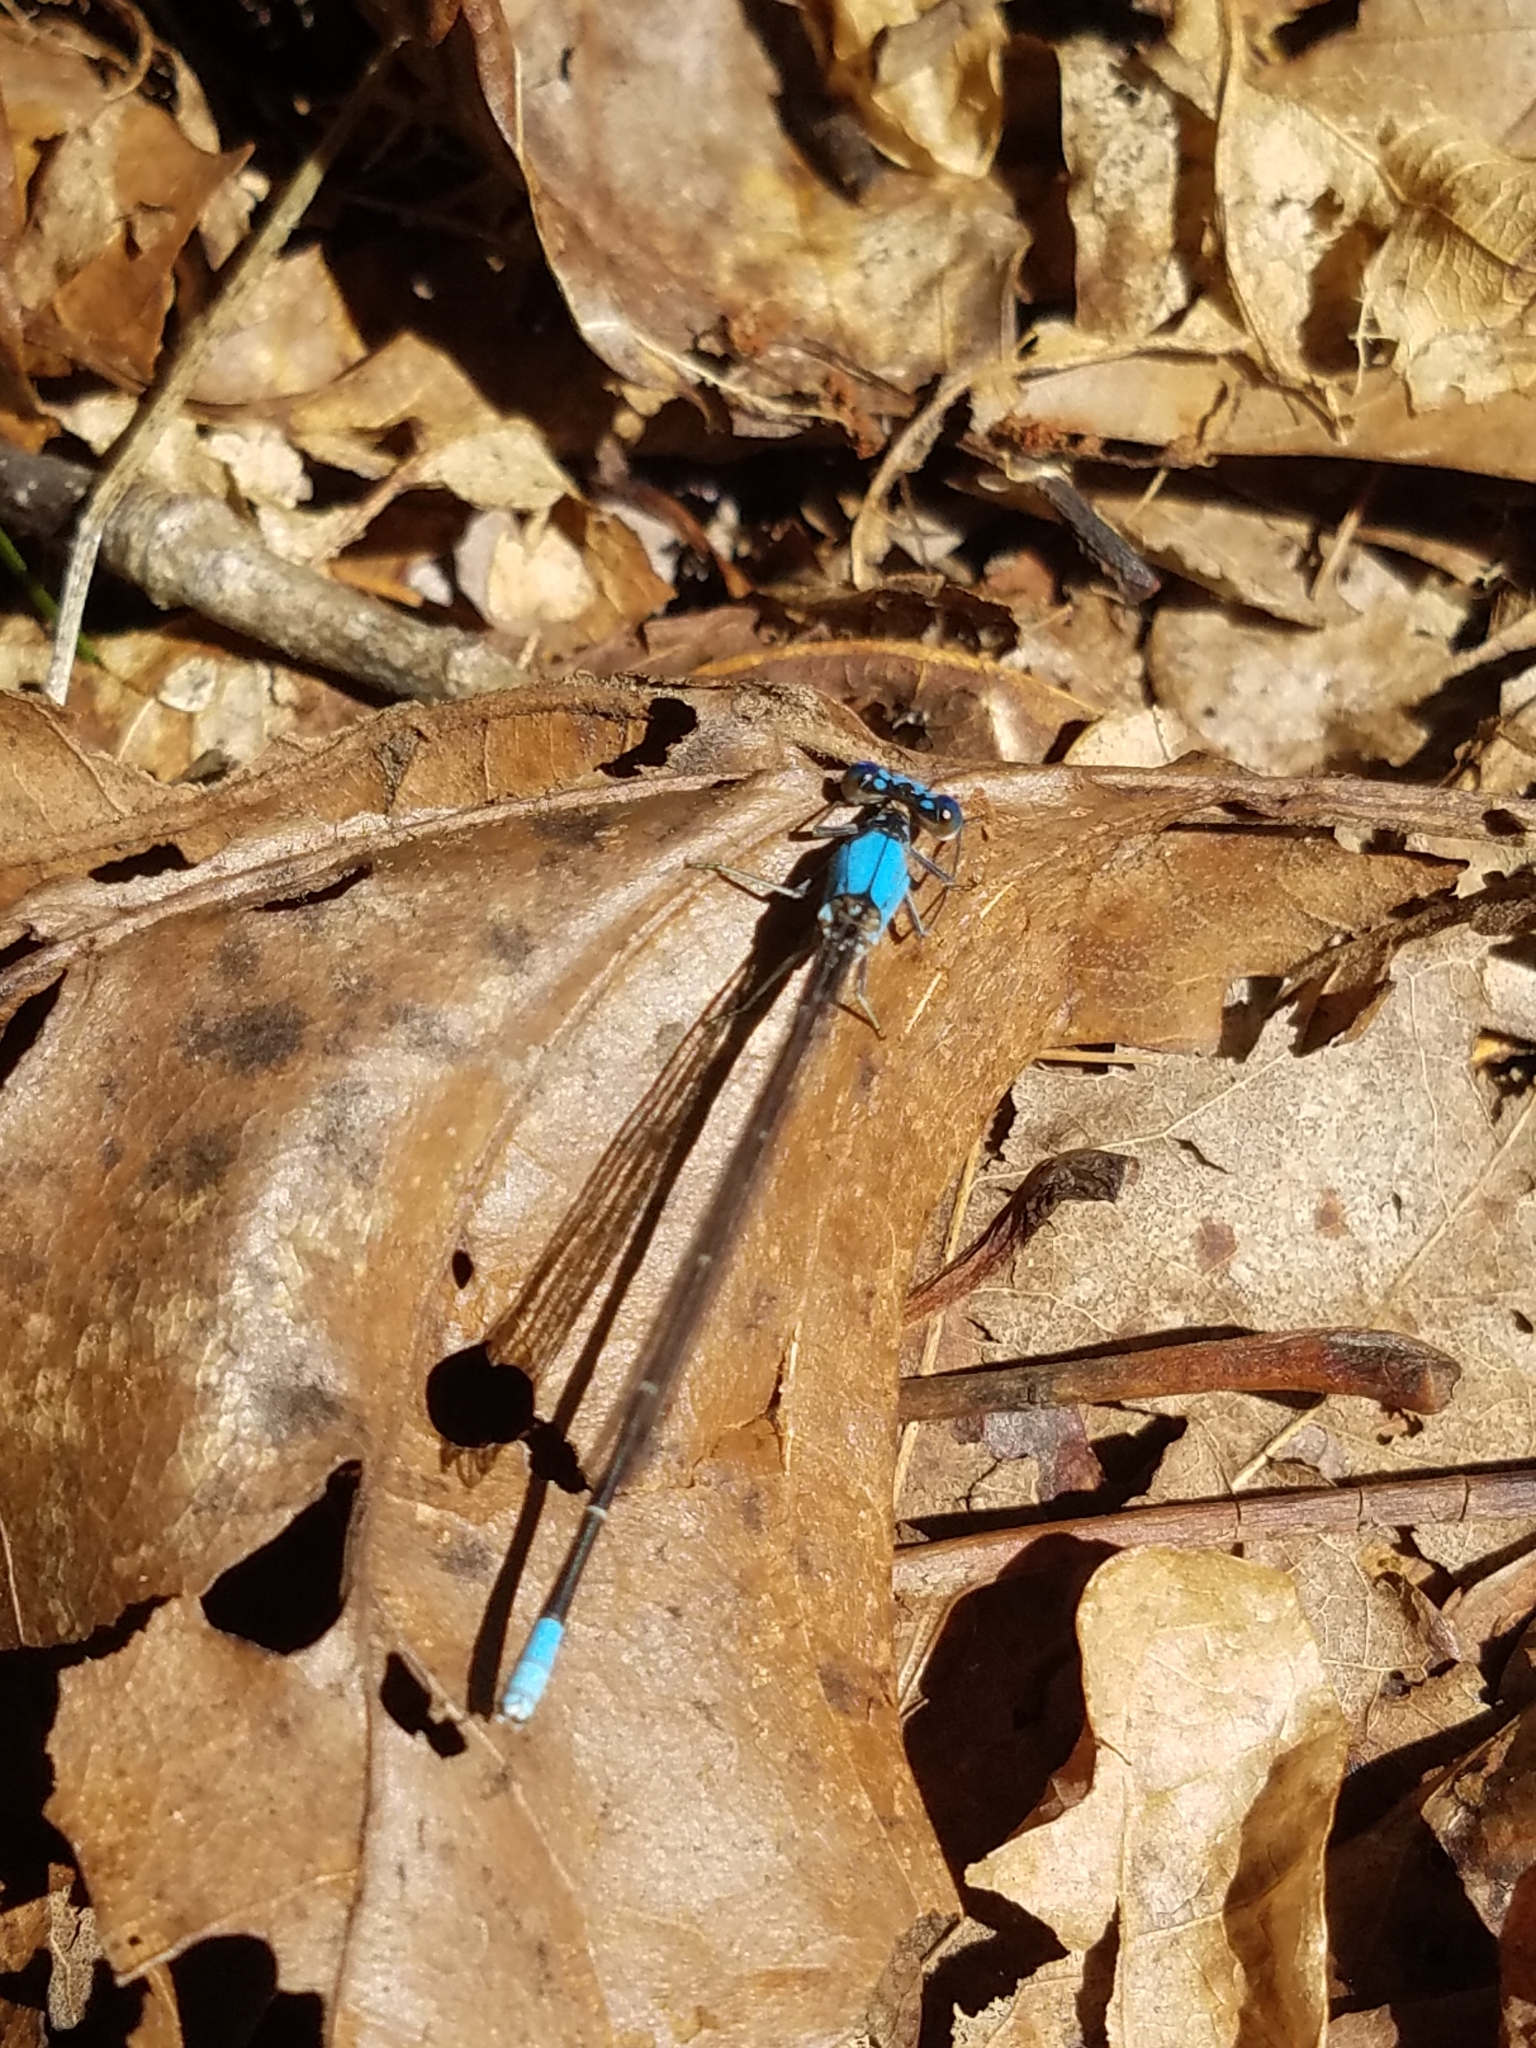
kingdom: Animalia
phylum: Arthropoda
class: Insecta
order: Odonata
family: Coenagrionidae
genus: Argia
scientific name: Argia apicalis
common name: Blue-fronted dancer
